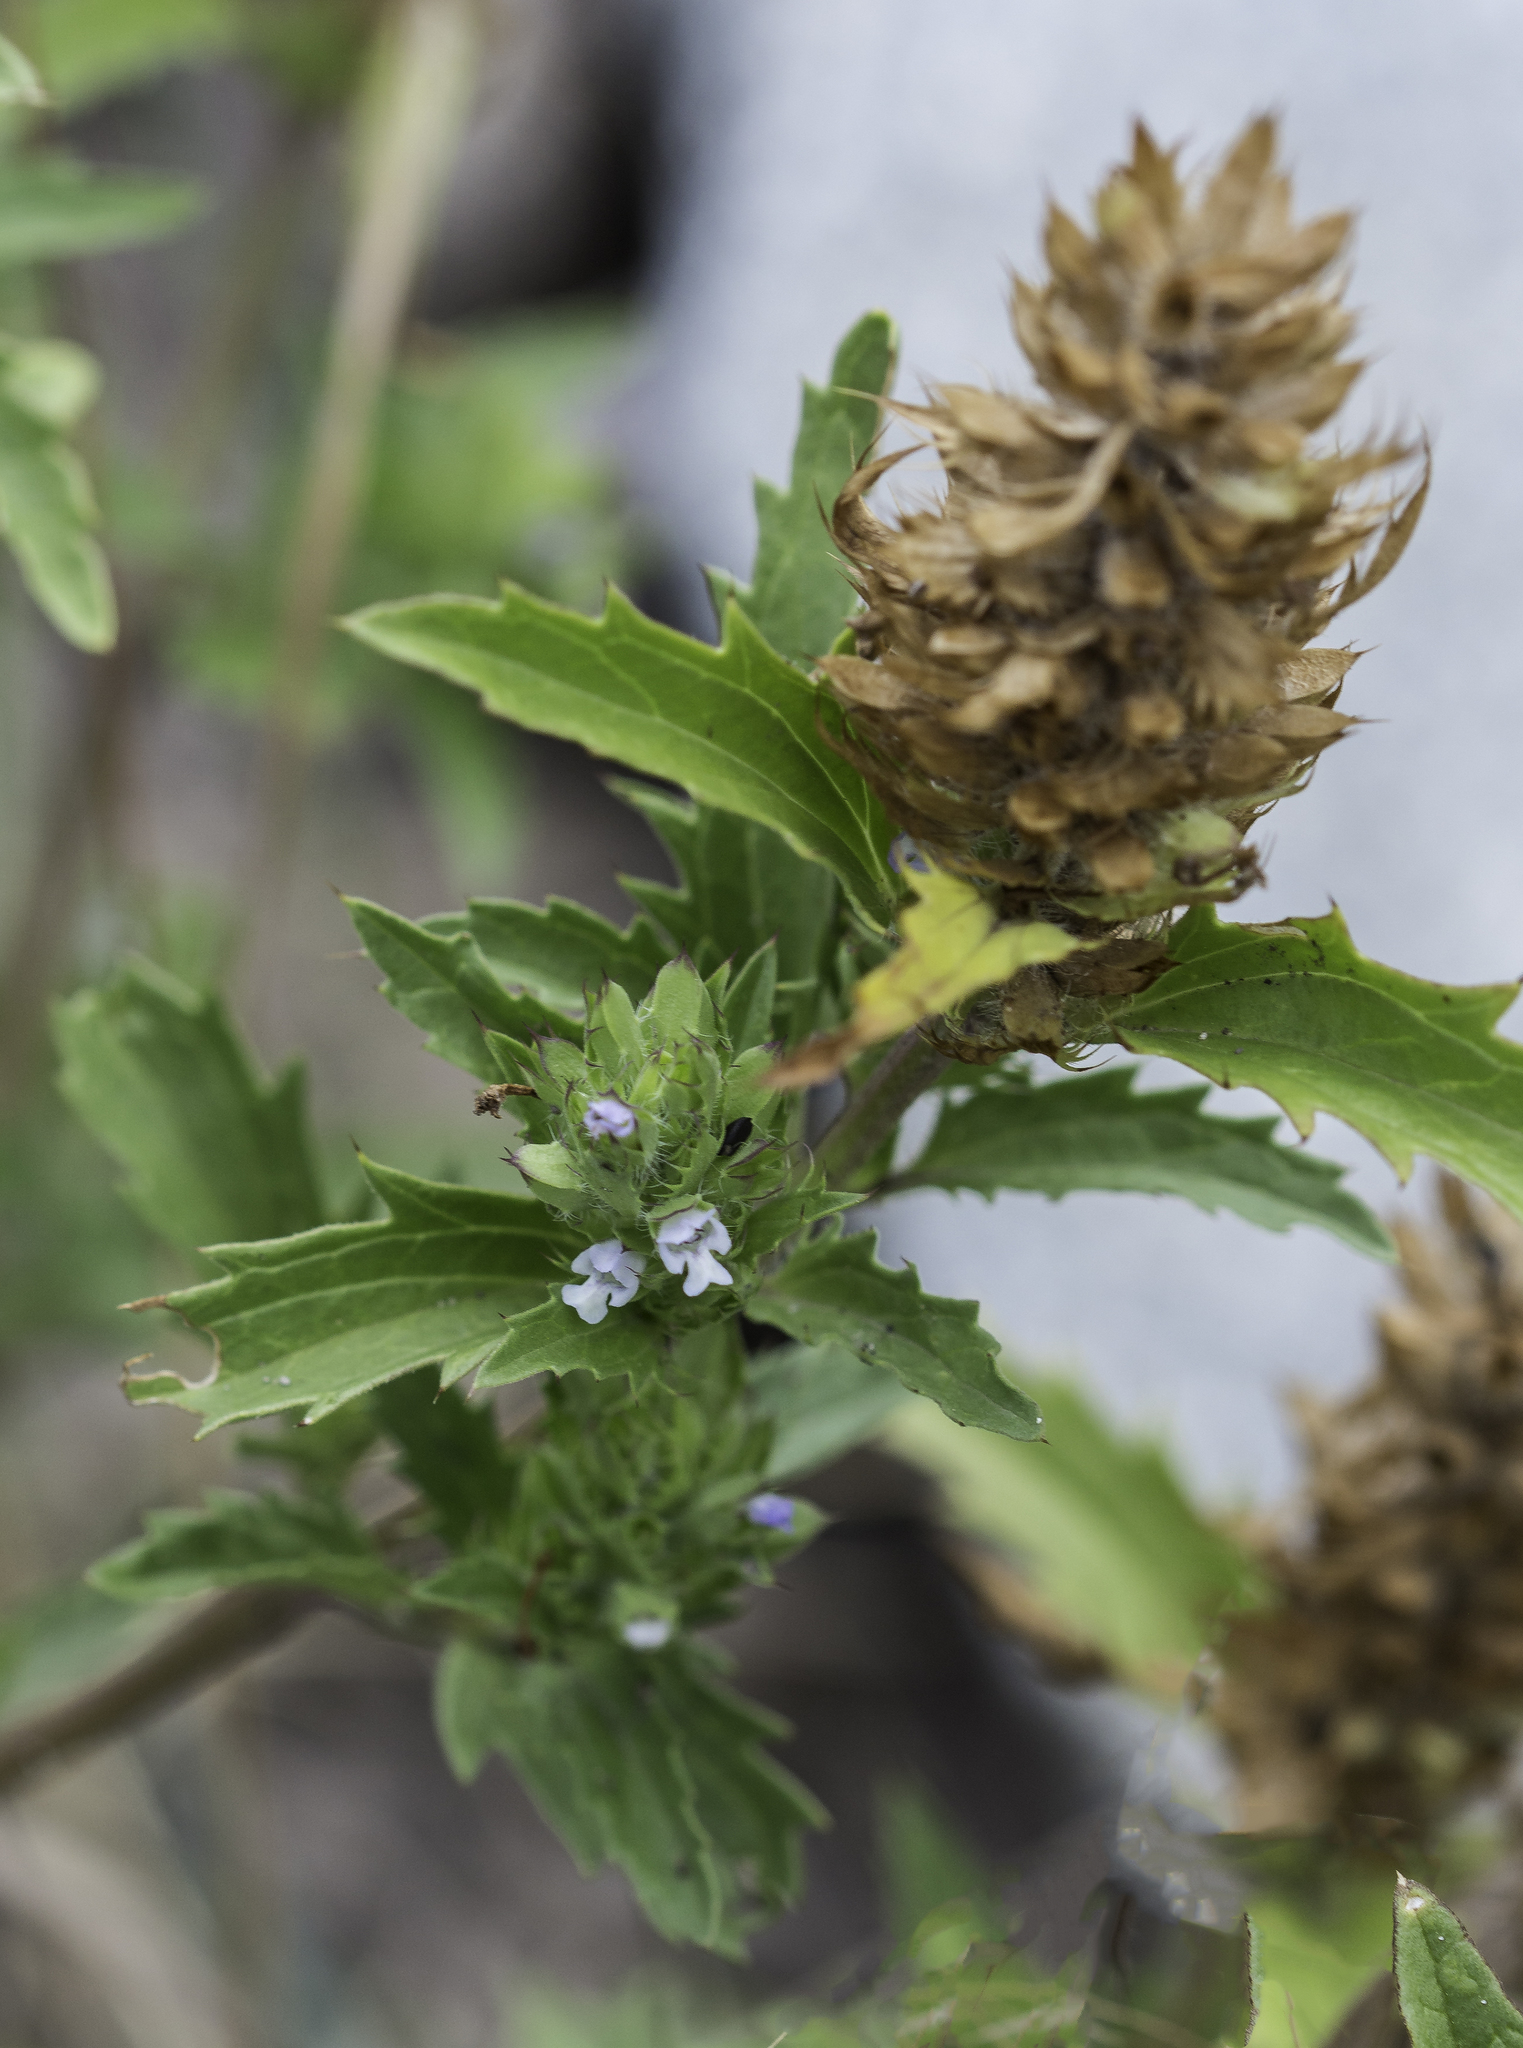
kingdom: Plantae
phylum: Tracheophyta
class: Magnoliopsida
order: Lamiales
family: Lamiaceae
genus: Dracocephalum
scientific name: Dracocephalum parviflorum
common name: American dragonhead
